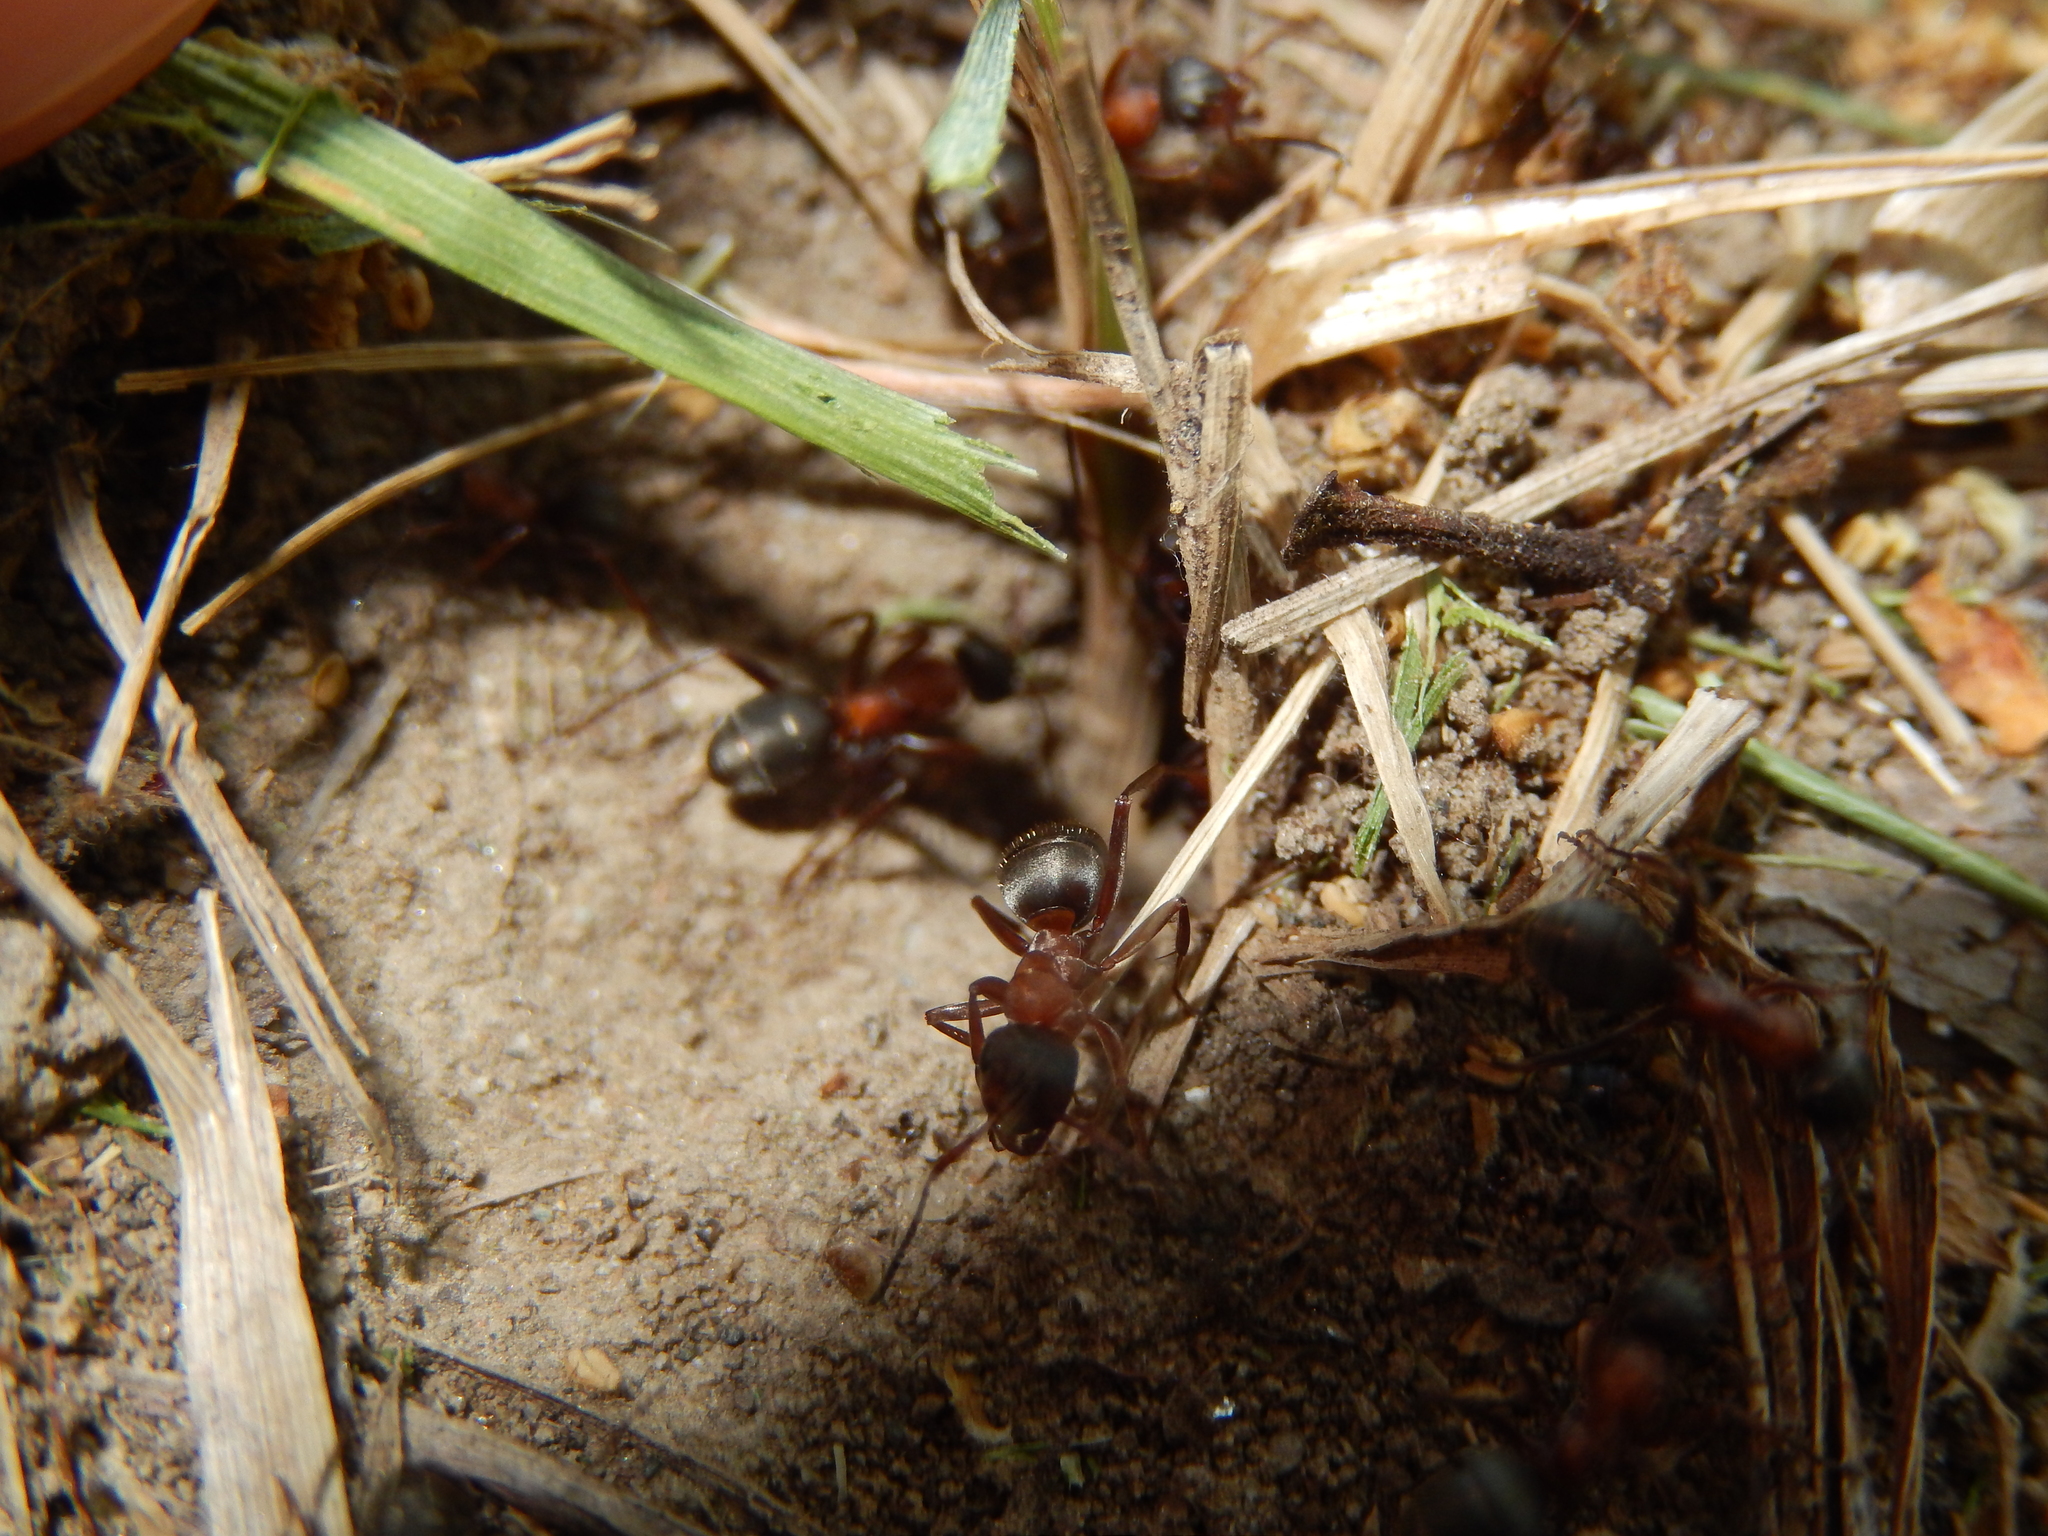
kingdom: Animalia
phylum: Arthropoda
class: Insecta
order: Hymenoptera
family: Formicidae
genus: Formica
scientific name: Formica rufibarbis
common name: Red barbed ant
